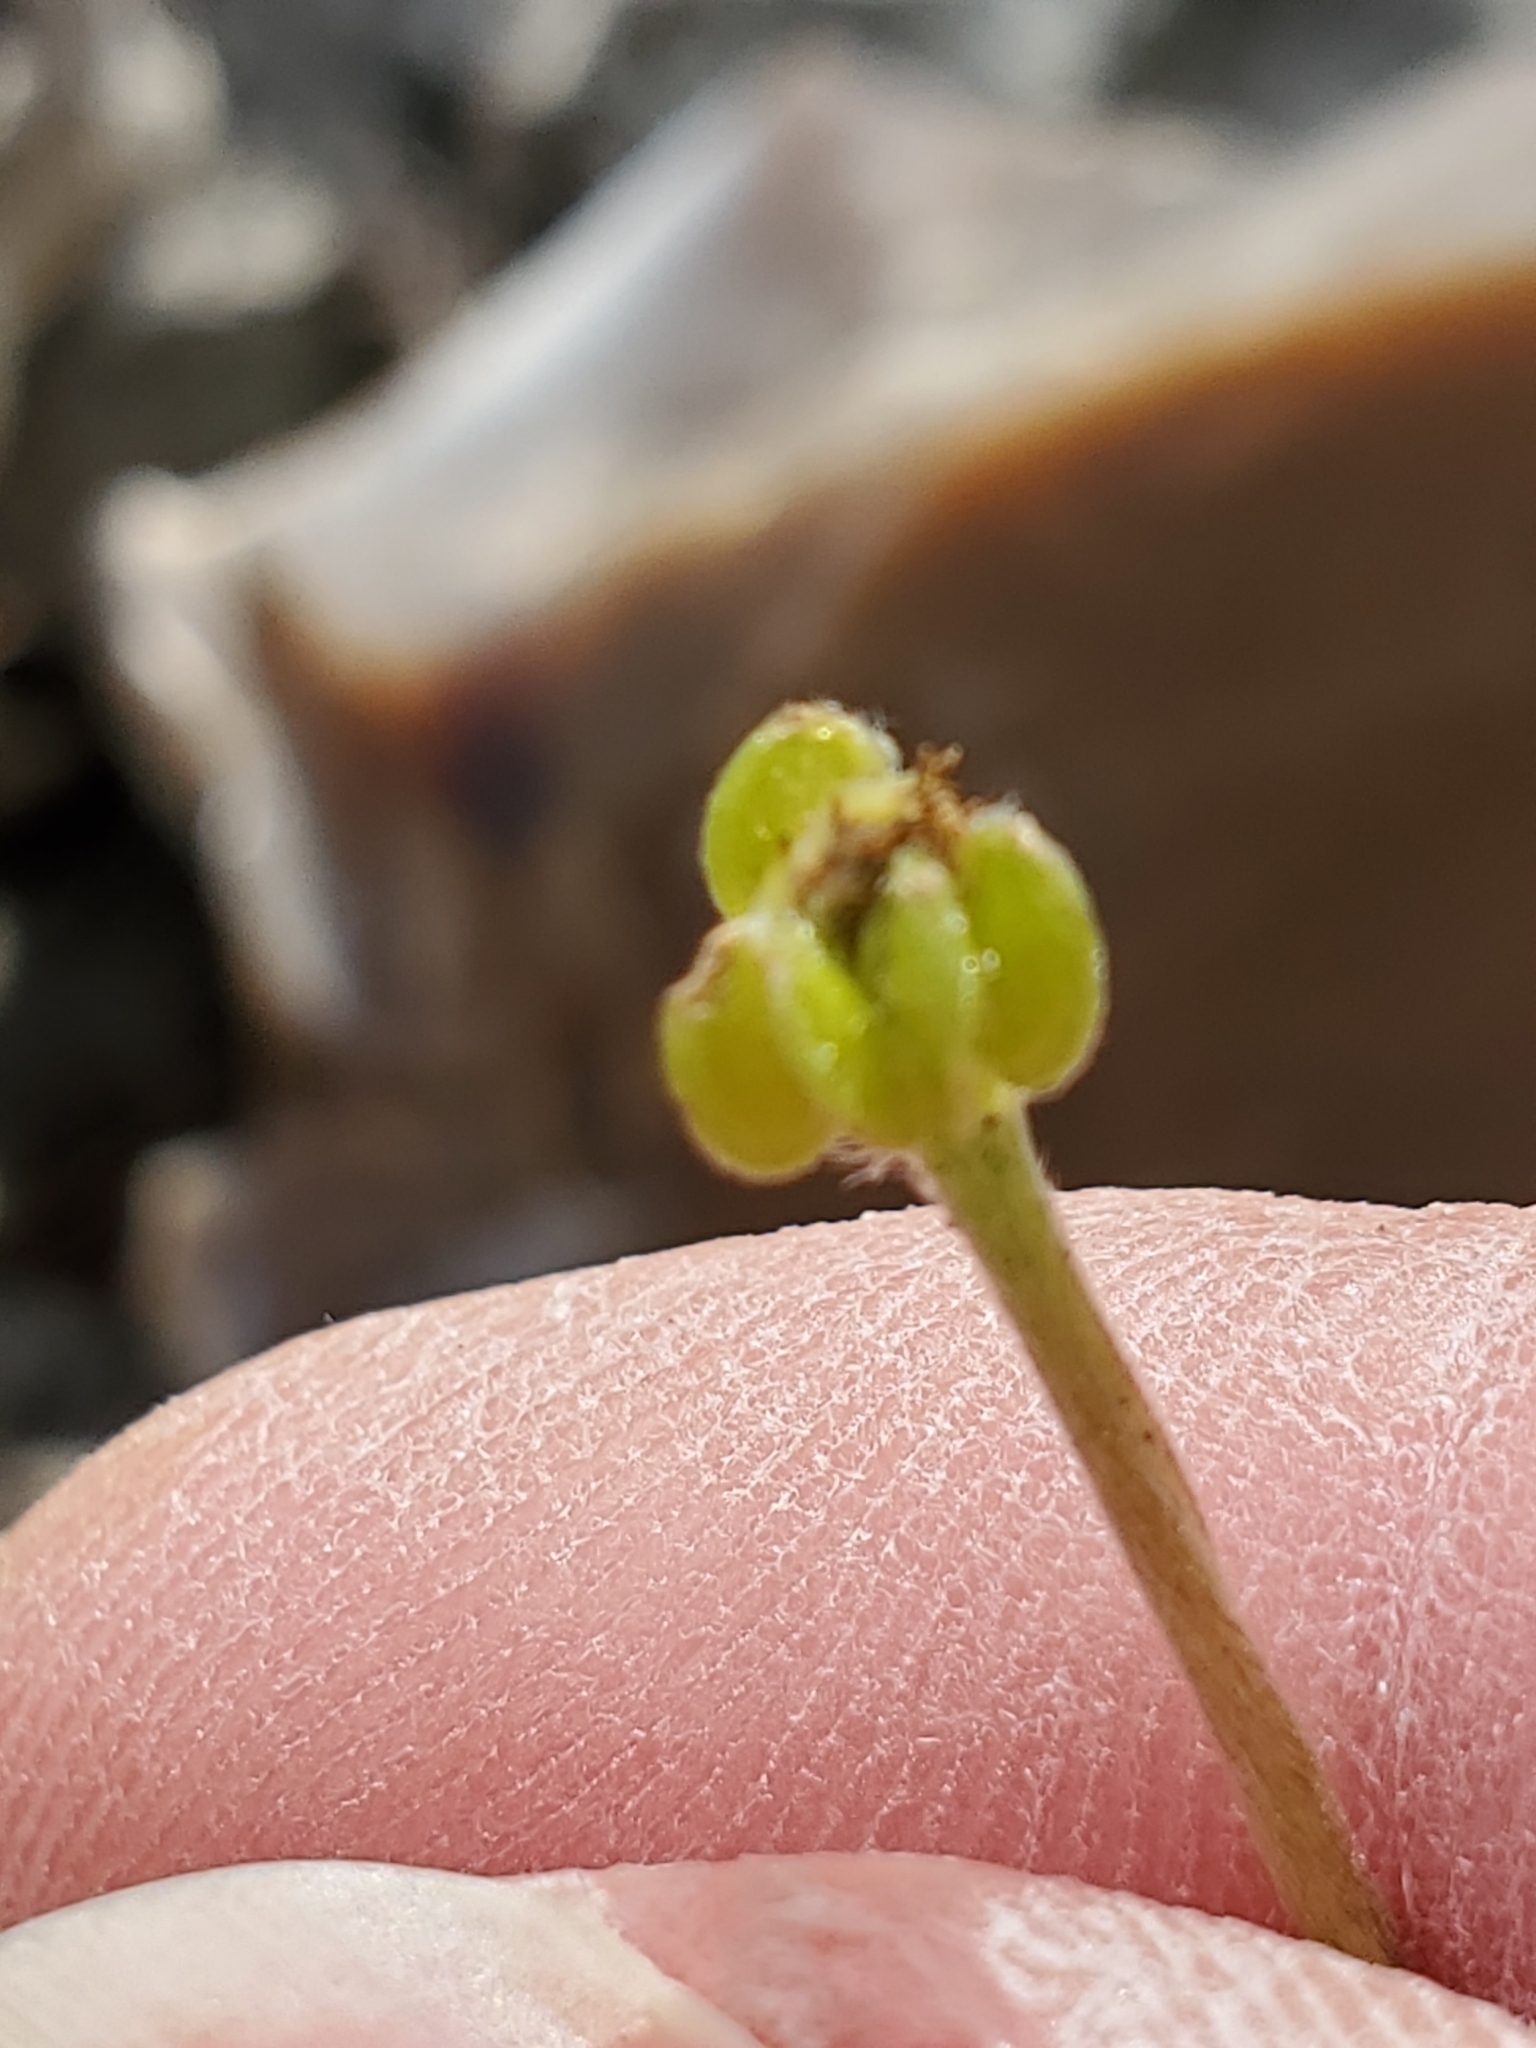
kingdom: Plantae
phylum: Tracheophyta
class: Magnoliopsida
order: Ranunculales
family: Ranunculaceae
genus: Anemone
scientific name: Anemone edwardsiana
